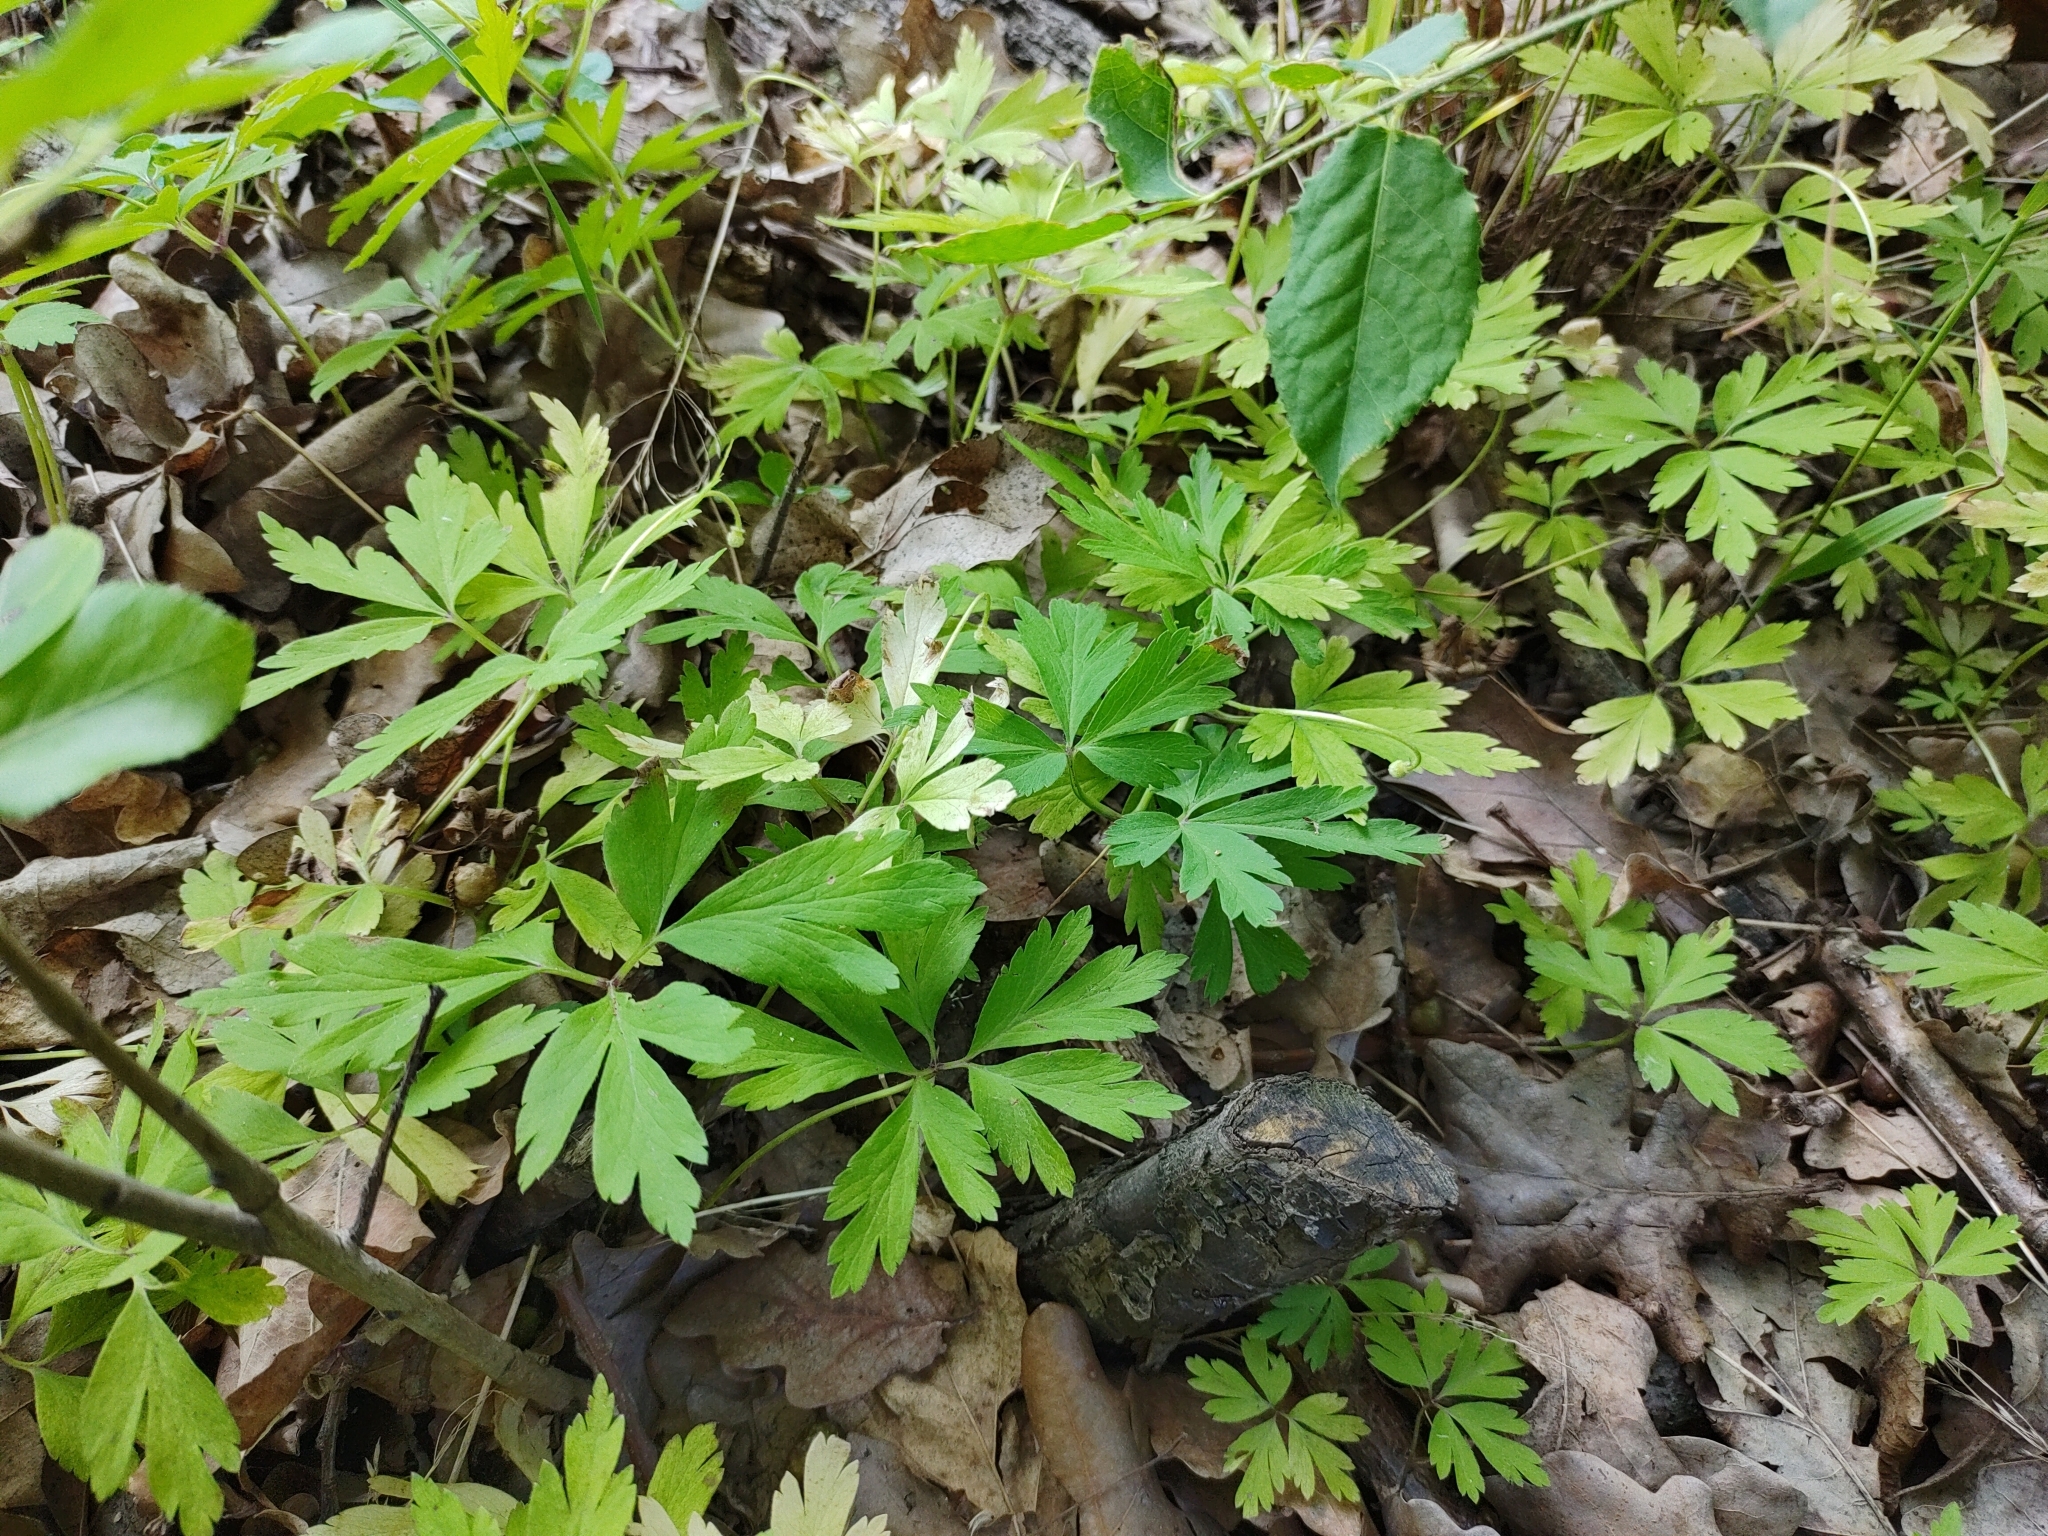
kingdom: Plantae
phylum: Tracheophyta
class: Magnoliopsida
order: Ranunculales
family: Ranunculaceae
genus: Anemone
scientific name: Anemone nemorosa
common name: Wood anemone
